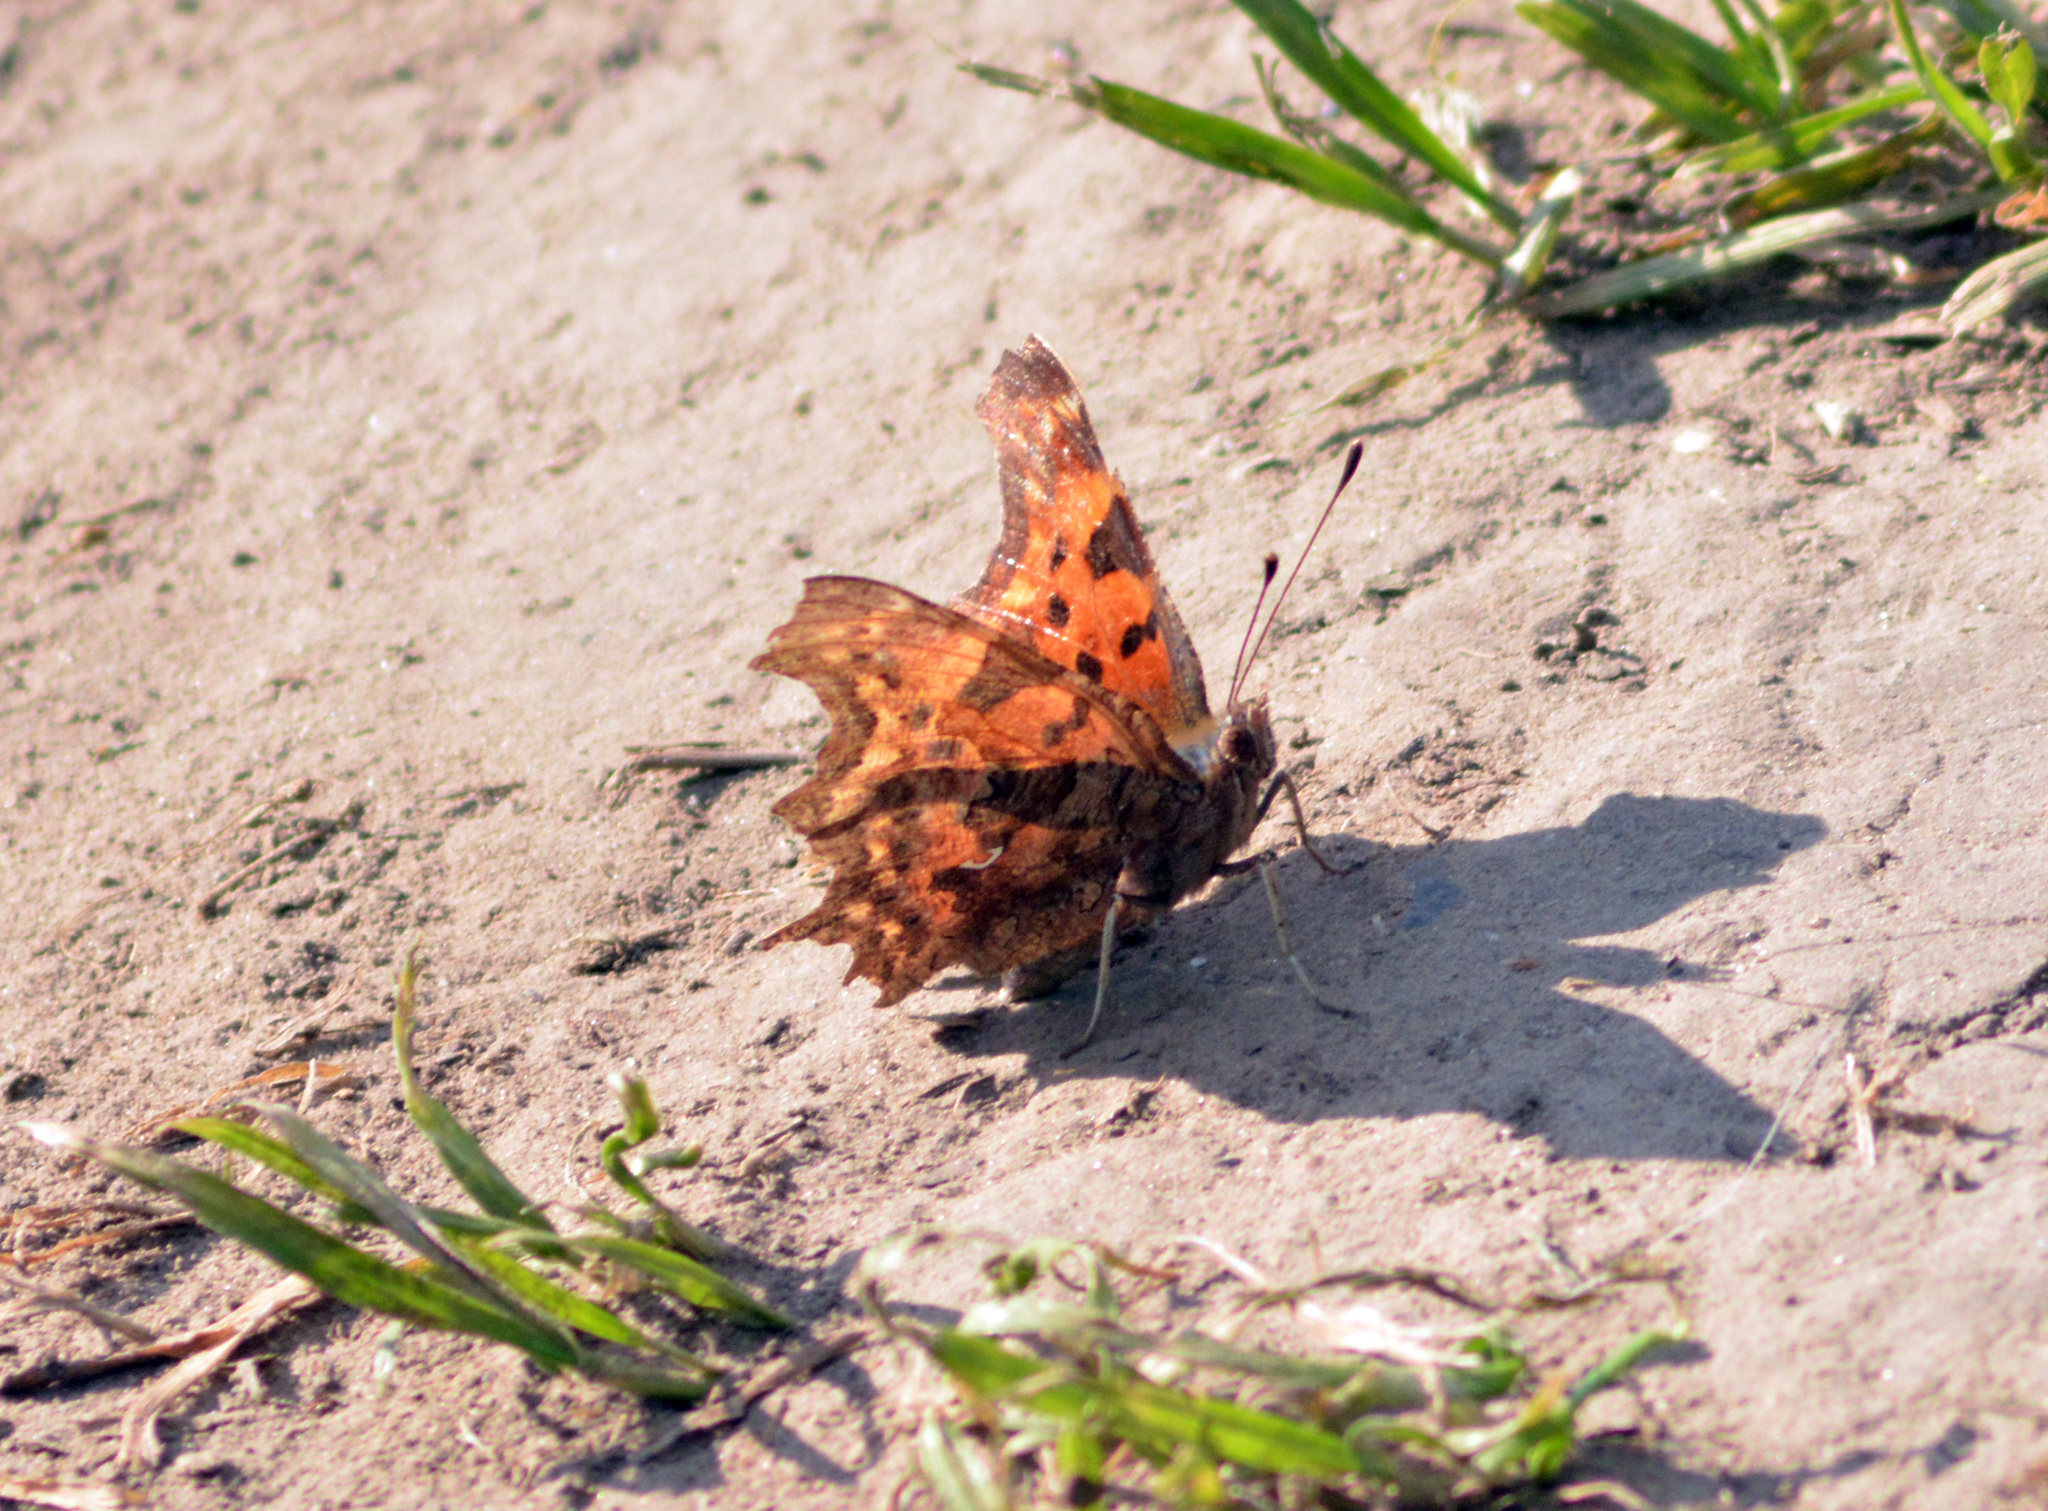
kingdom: Animalia
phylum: Arthropoda
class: Insecta
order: Lepidoptera
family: Nymphalidae
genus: Polygonia
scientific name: Polygonia c-album
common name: Comma
